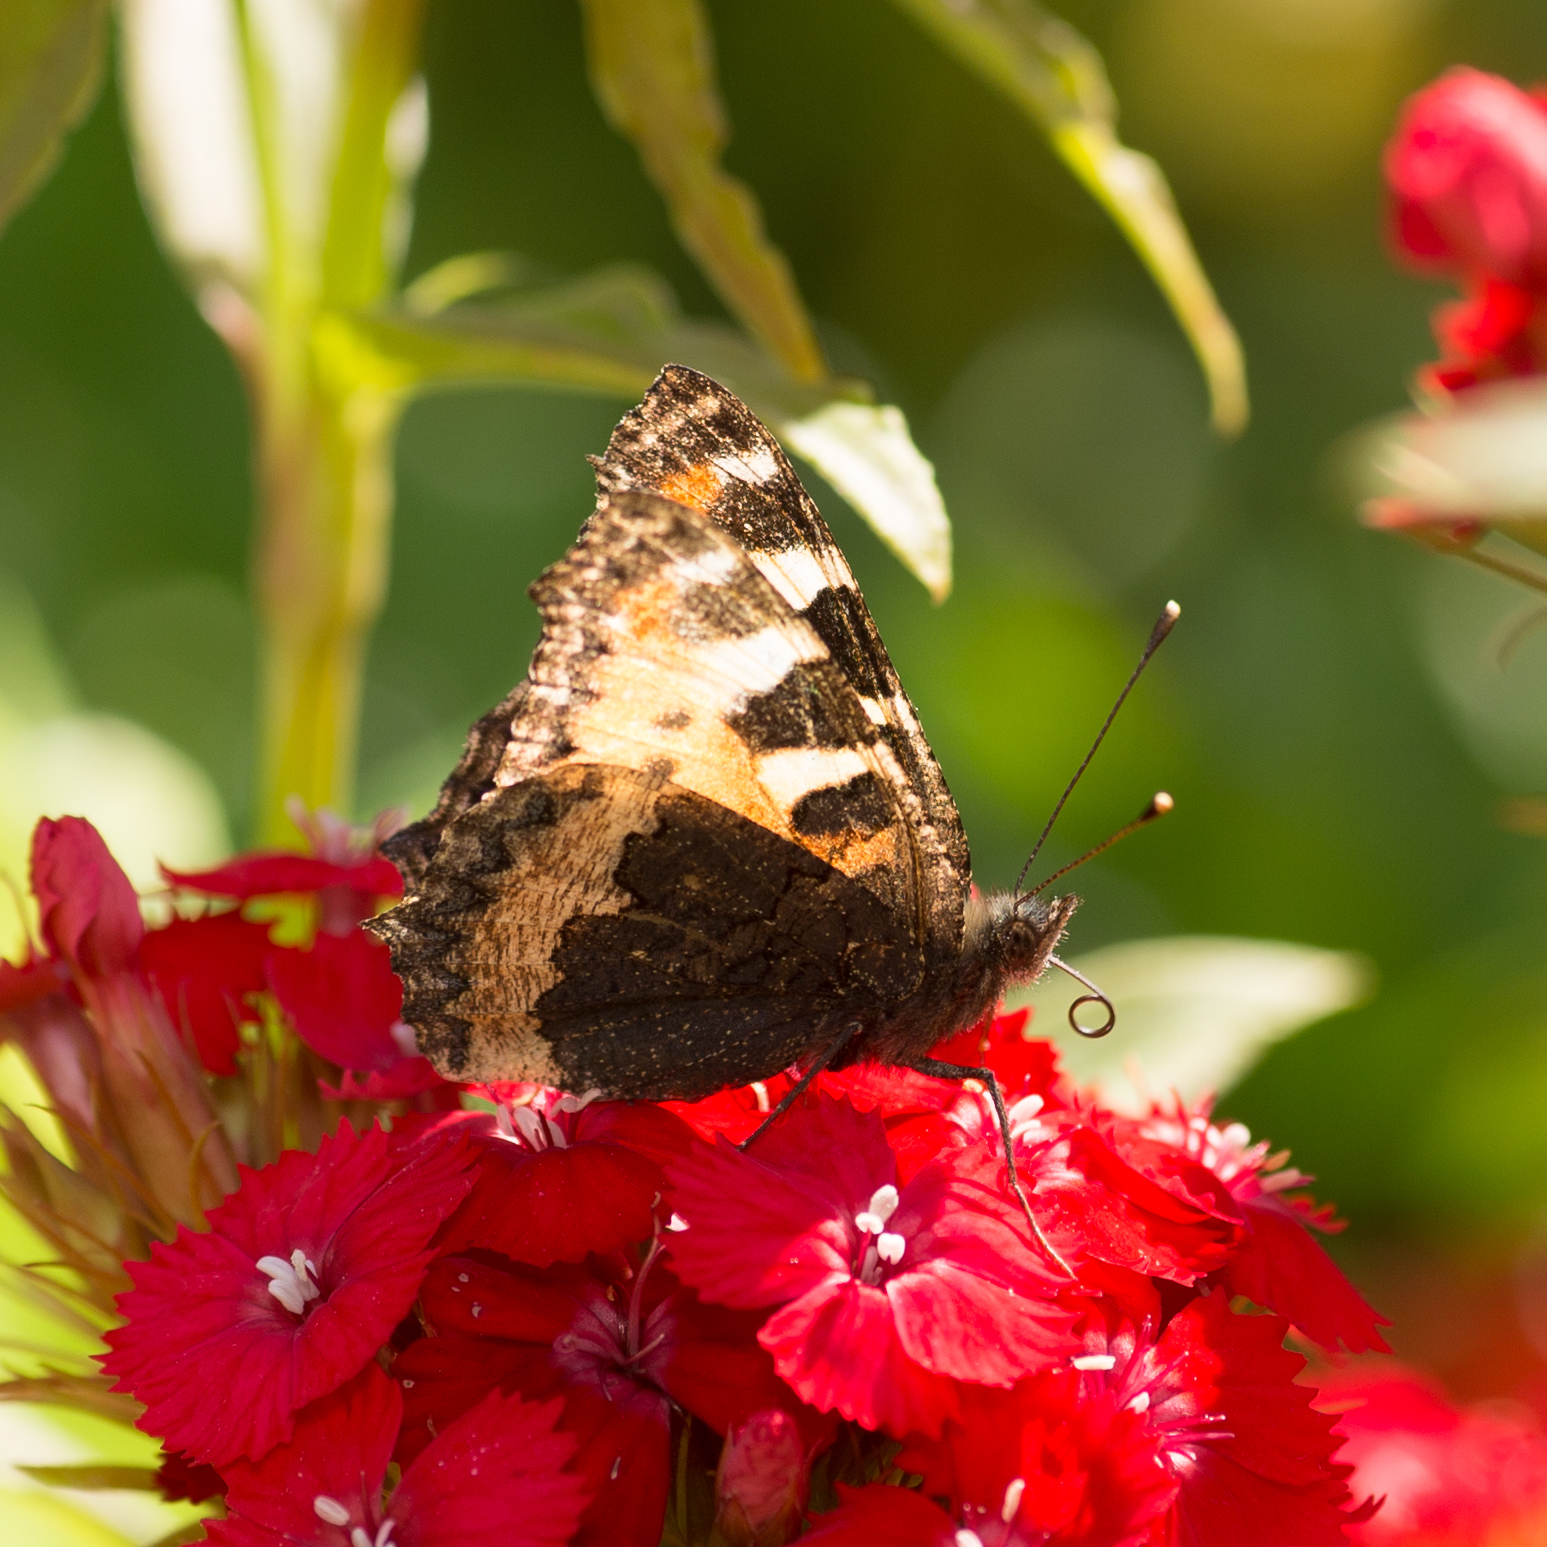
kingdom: Animalia
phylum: Arthropoda
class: Insecta
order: Lepidoptera
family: Nymphalidae
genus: Aglais
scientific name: Aglais urticae
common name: Small tortoiseshell
